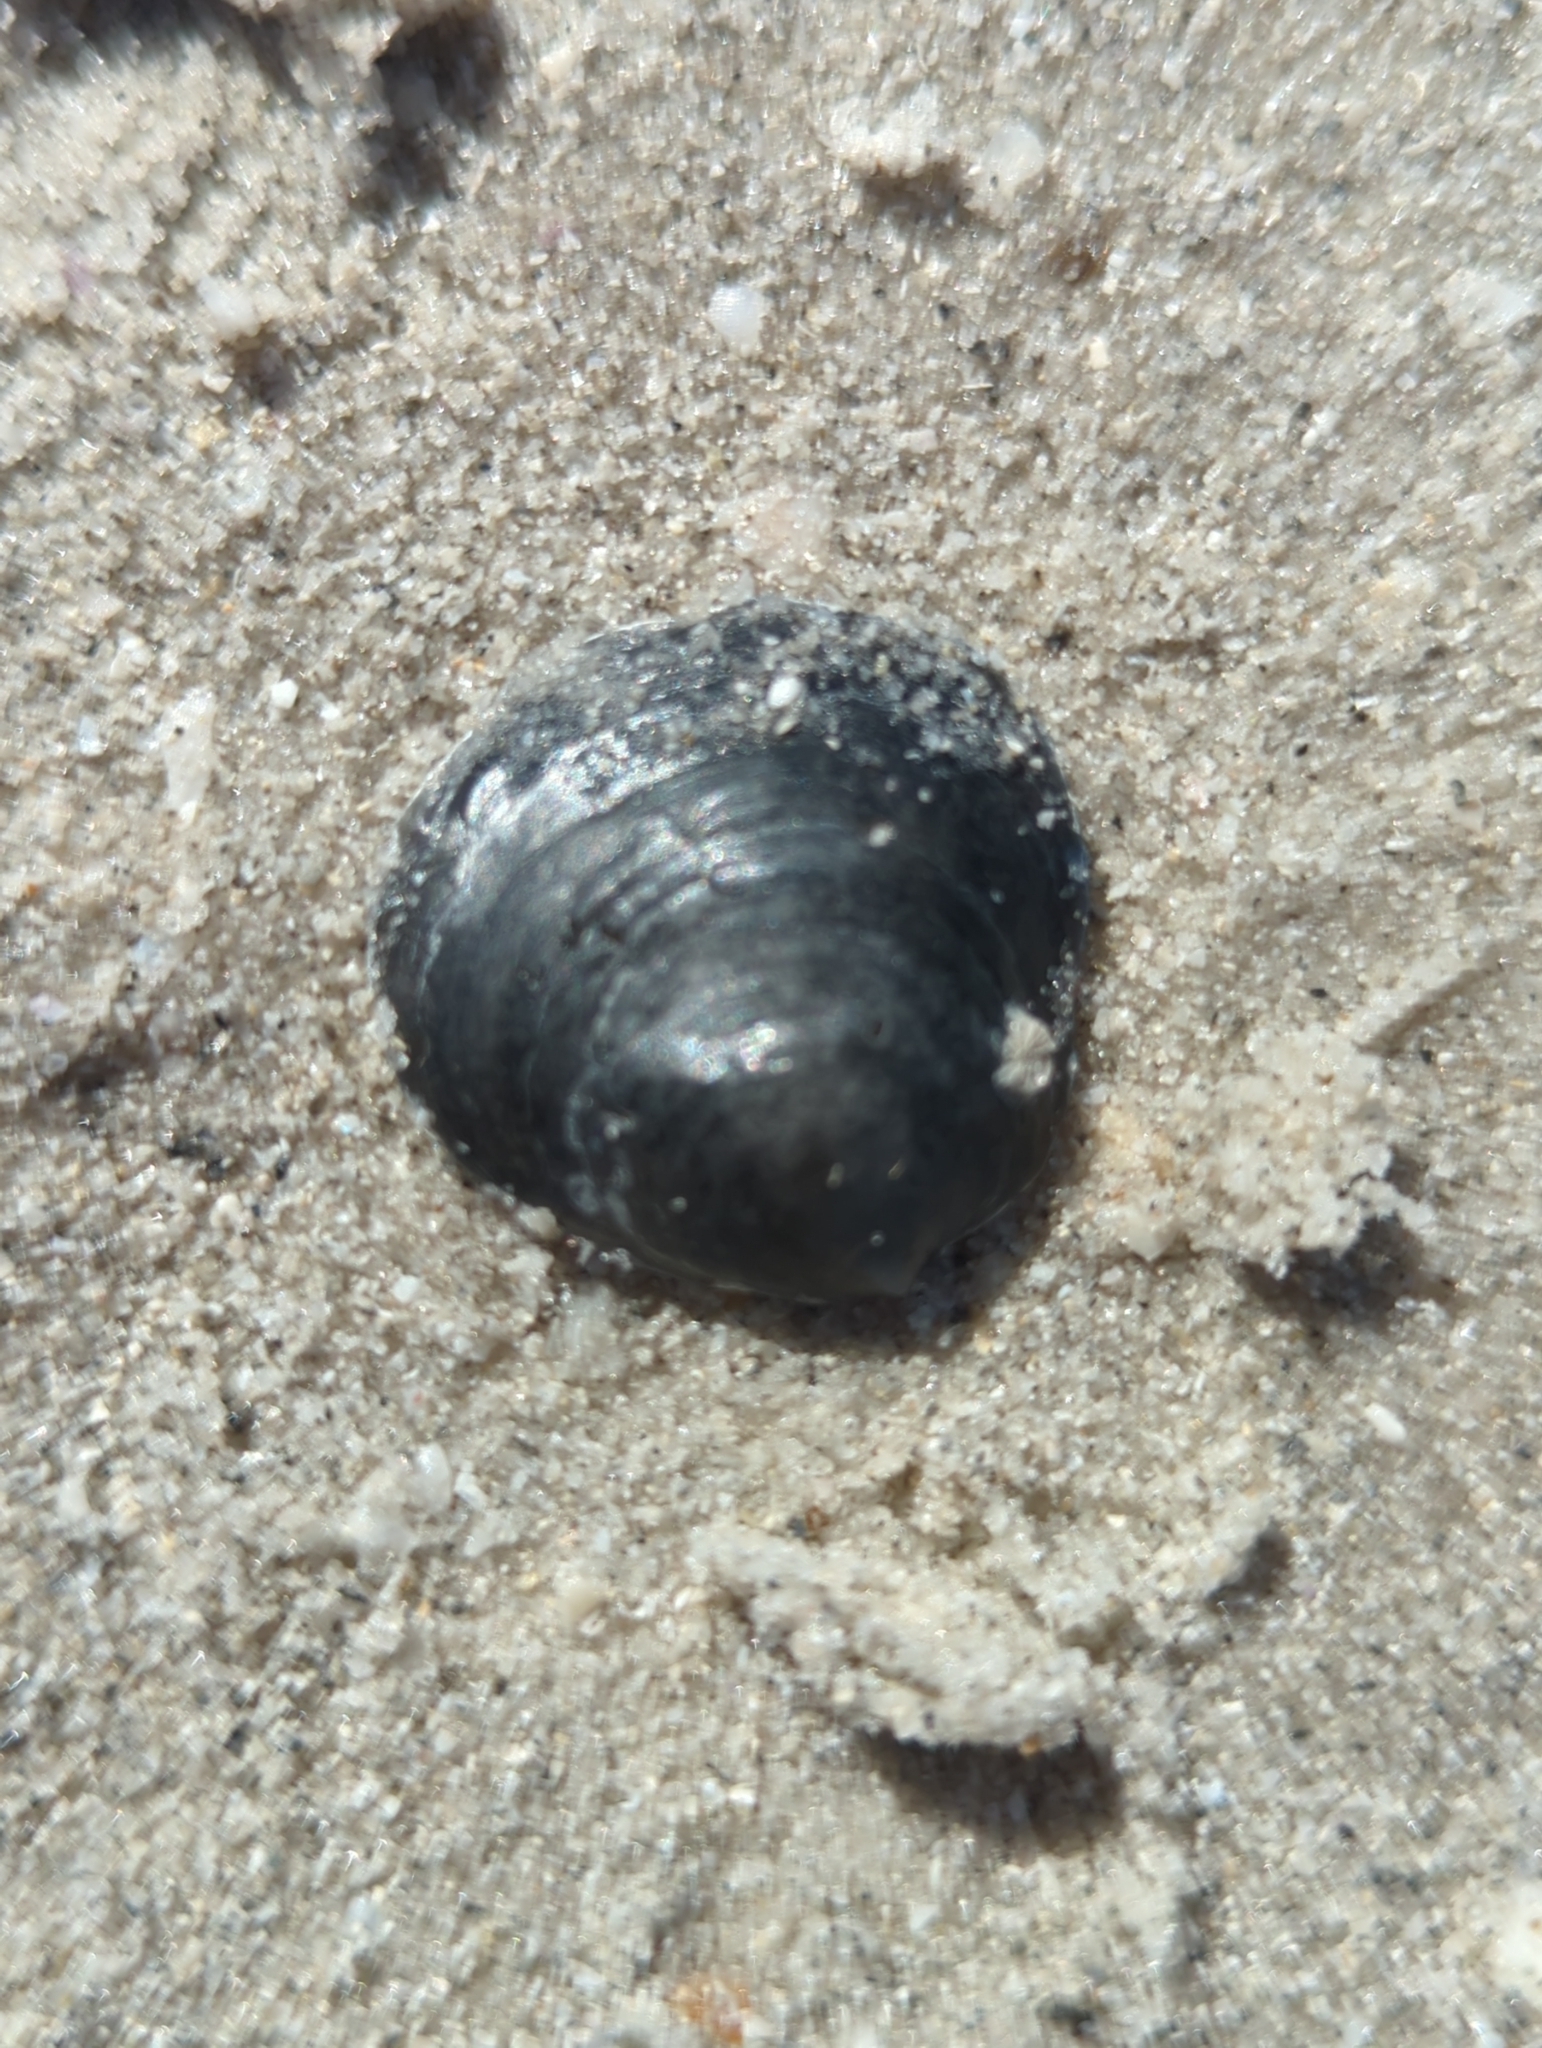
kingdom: Animalia
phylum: Mollusca
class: Bivalvia
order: Pectinida
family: Anomiidae
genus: Anomia
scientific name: Anomia simplex
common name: Common jingle shell
